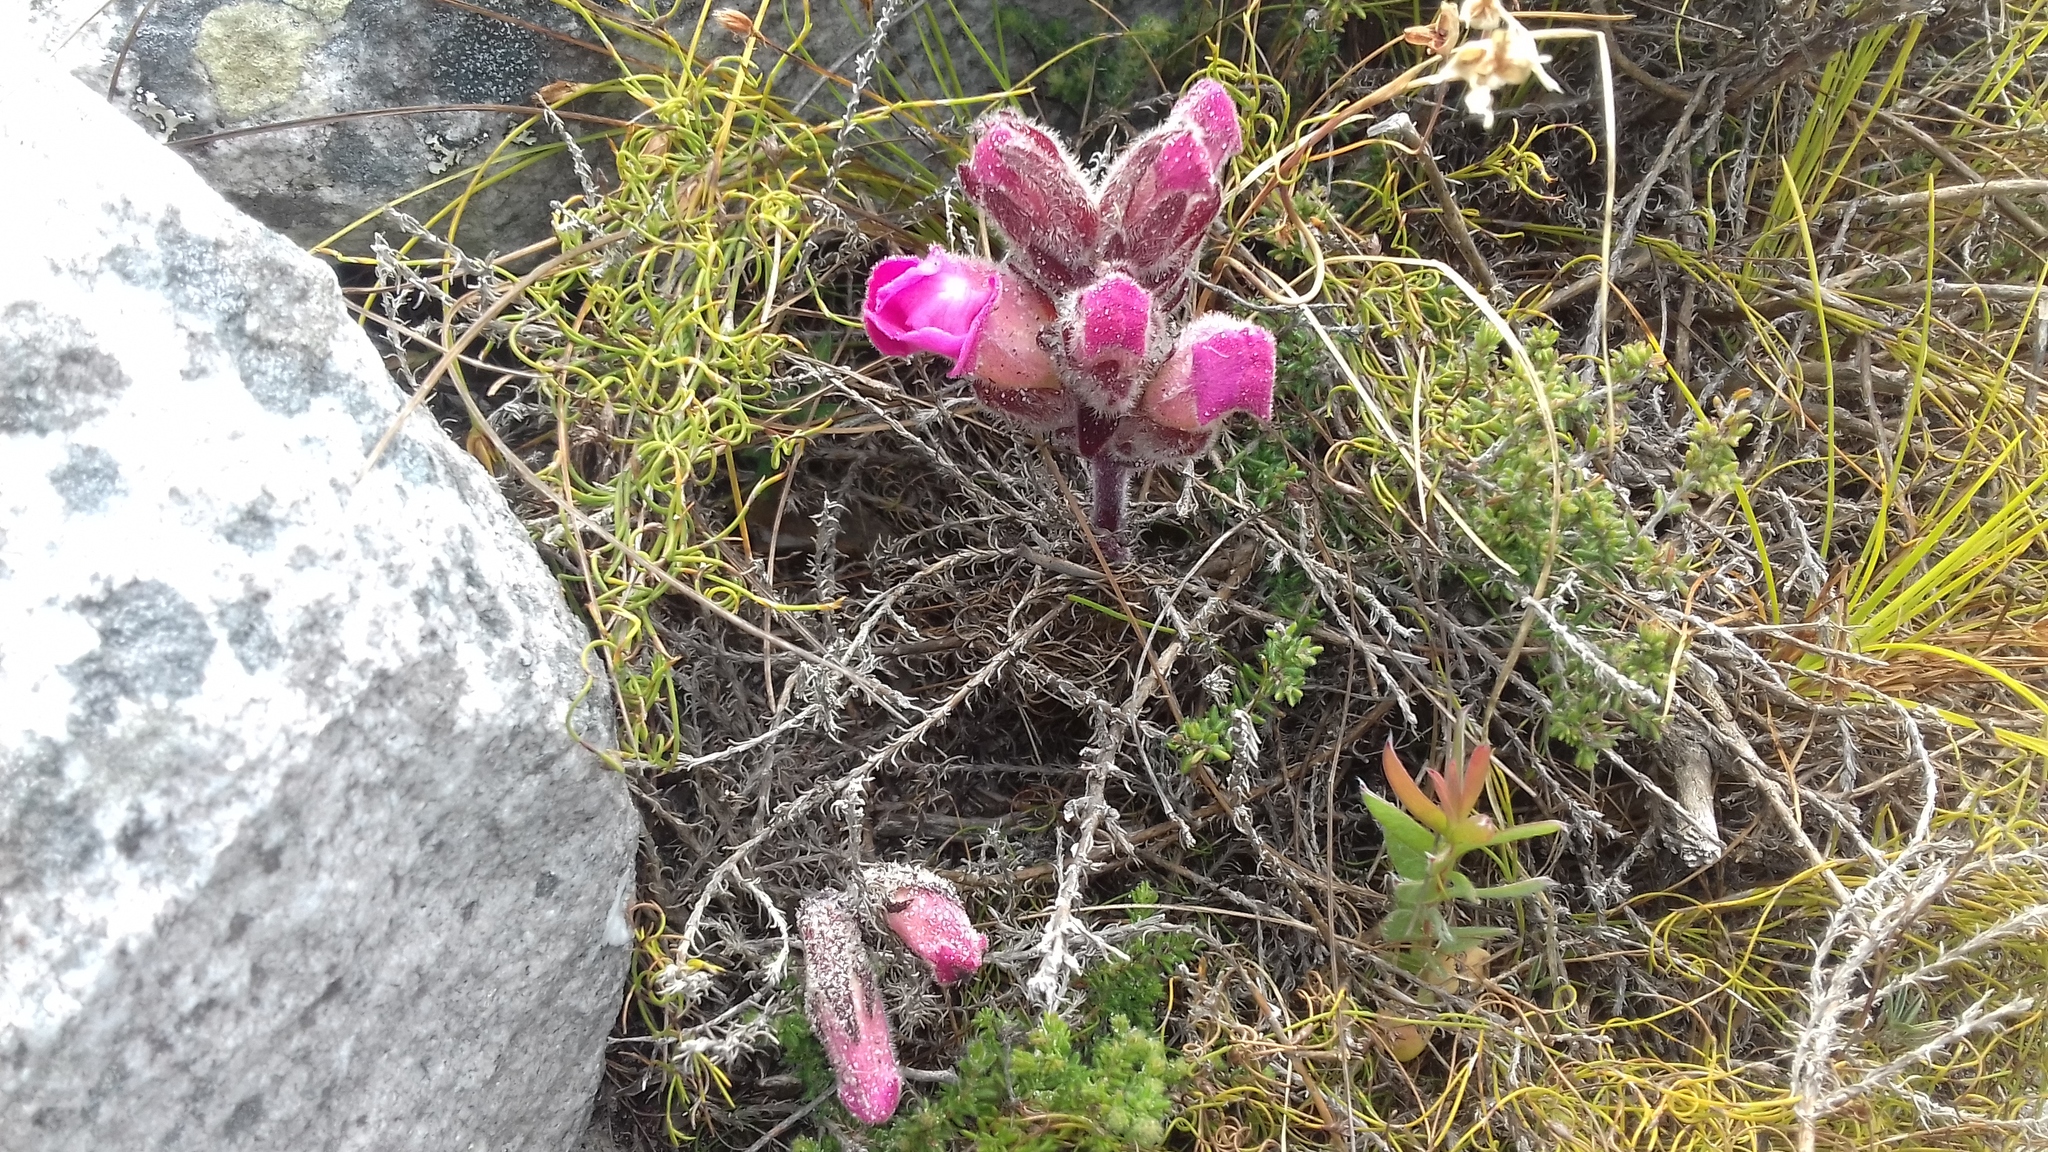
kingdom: Plantae
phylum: Tracheophyta
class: Magnoliopsida
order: Lamiales
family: Orobanchaceae
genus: Harveya
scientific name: Harveya purpurea
